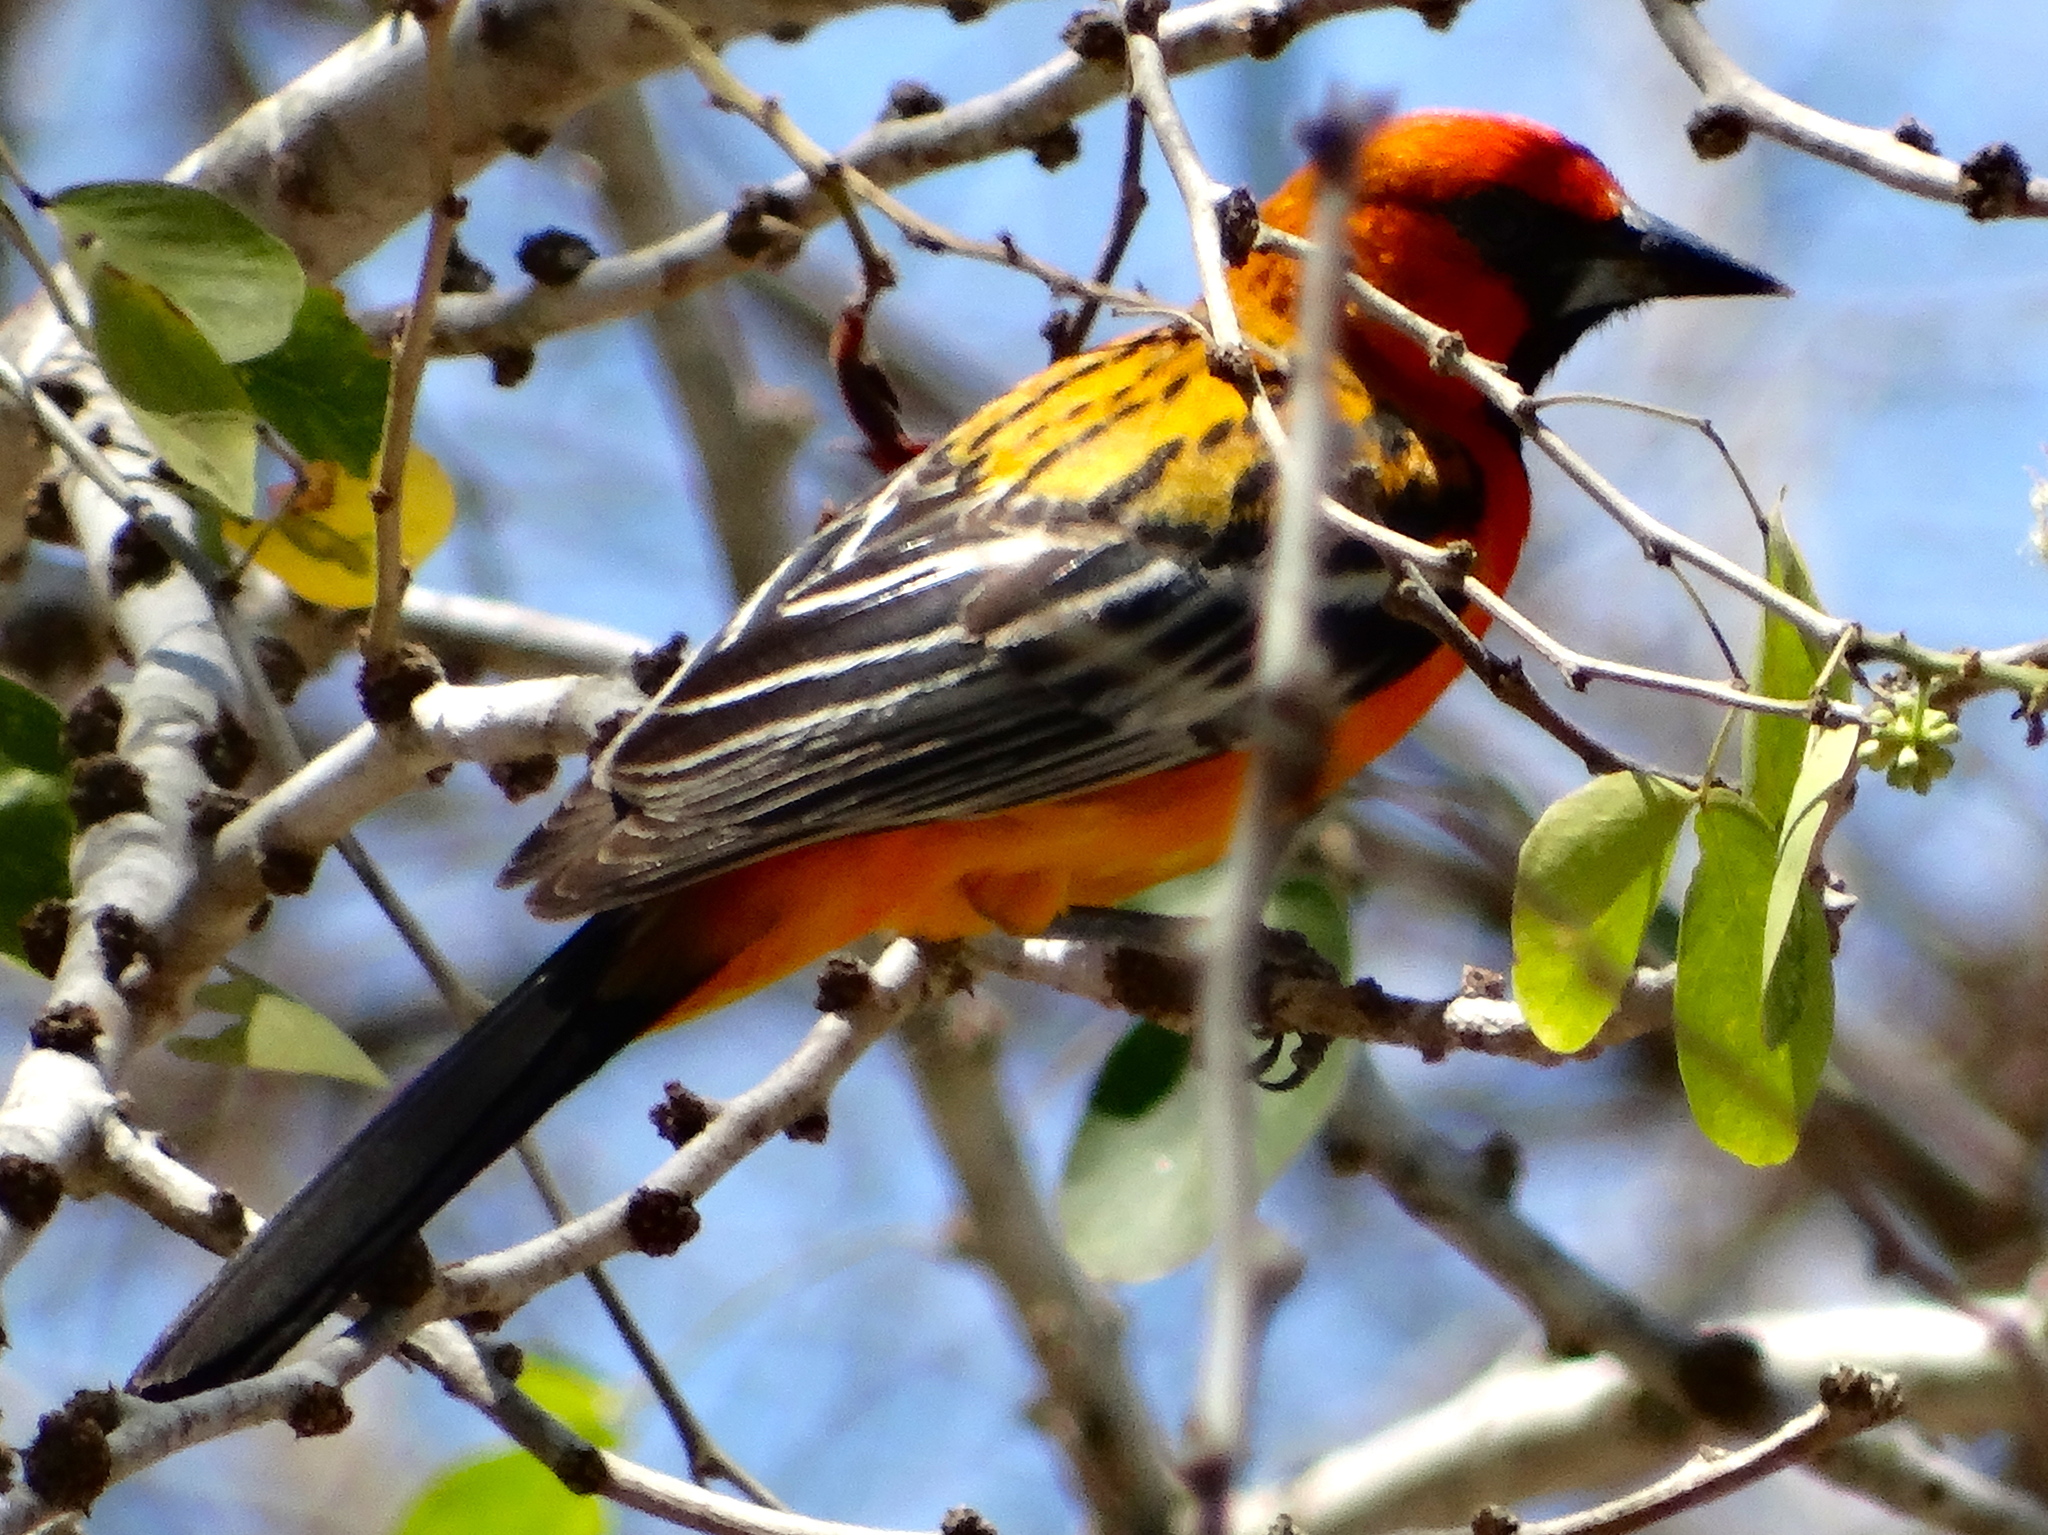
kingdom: Animalia
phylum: Chordata
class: Aves
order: Passeriformes
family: Icteridae
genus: Icterus
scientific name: Icterus pustulatus
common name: Streak-backed oriole
